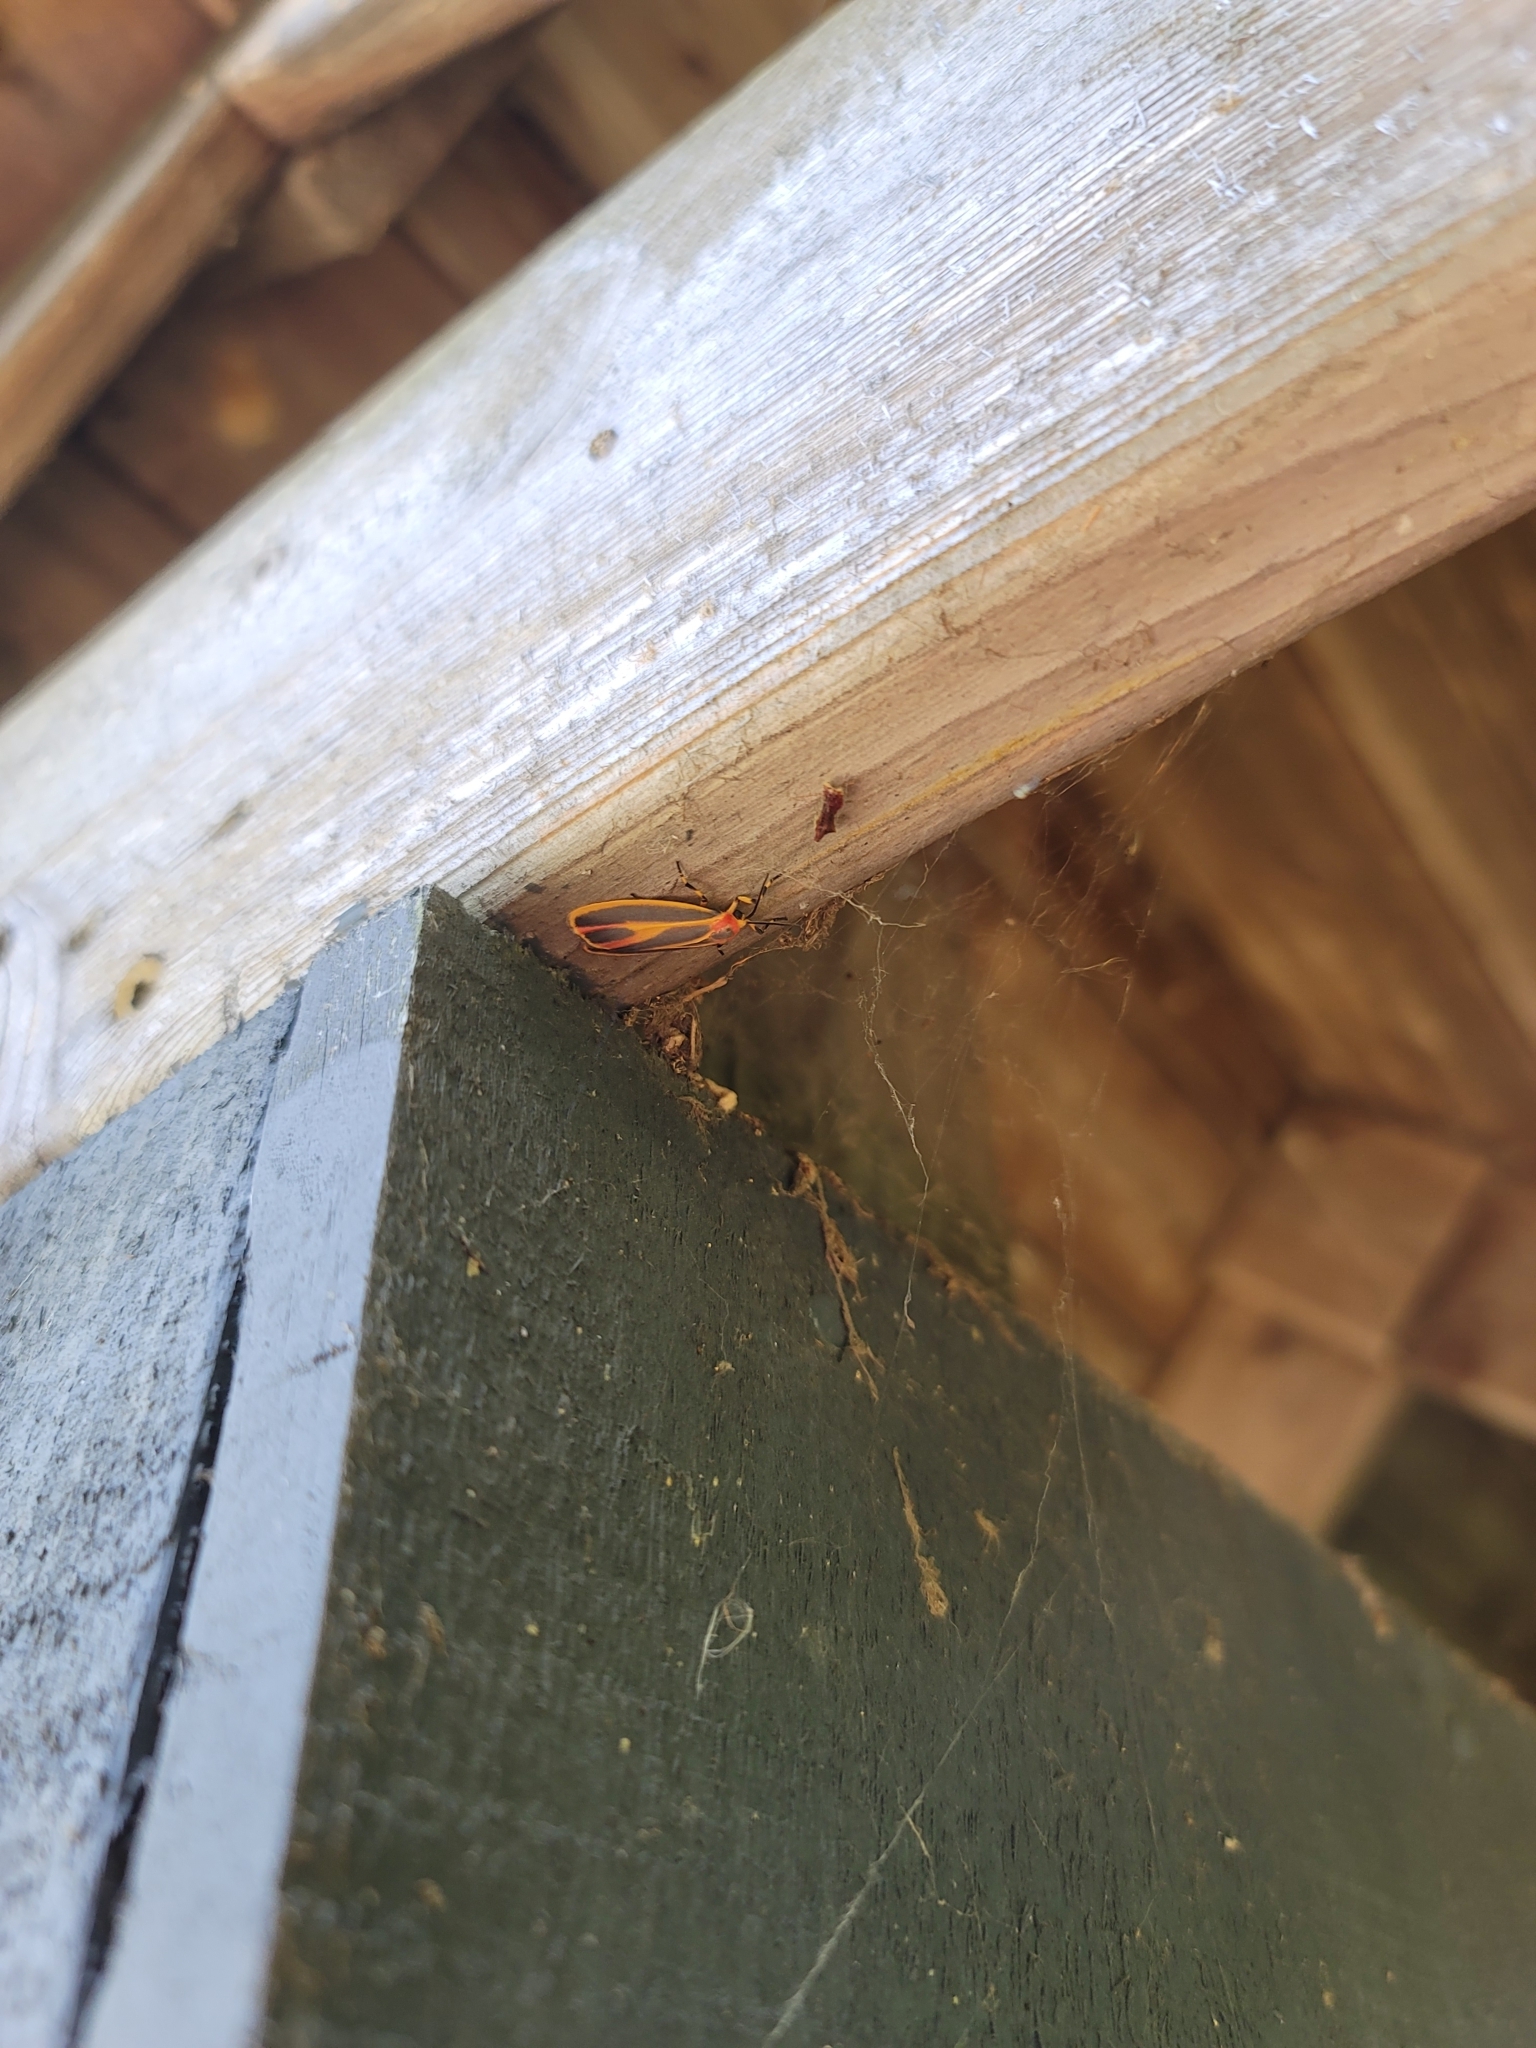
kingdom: Animalia
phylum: Arthropoda
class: Insecta
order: Lepidoptera
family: Erebidae
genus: Hypoprepia
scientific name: Hypoprepia fucosa
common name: Painted lichen moth
